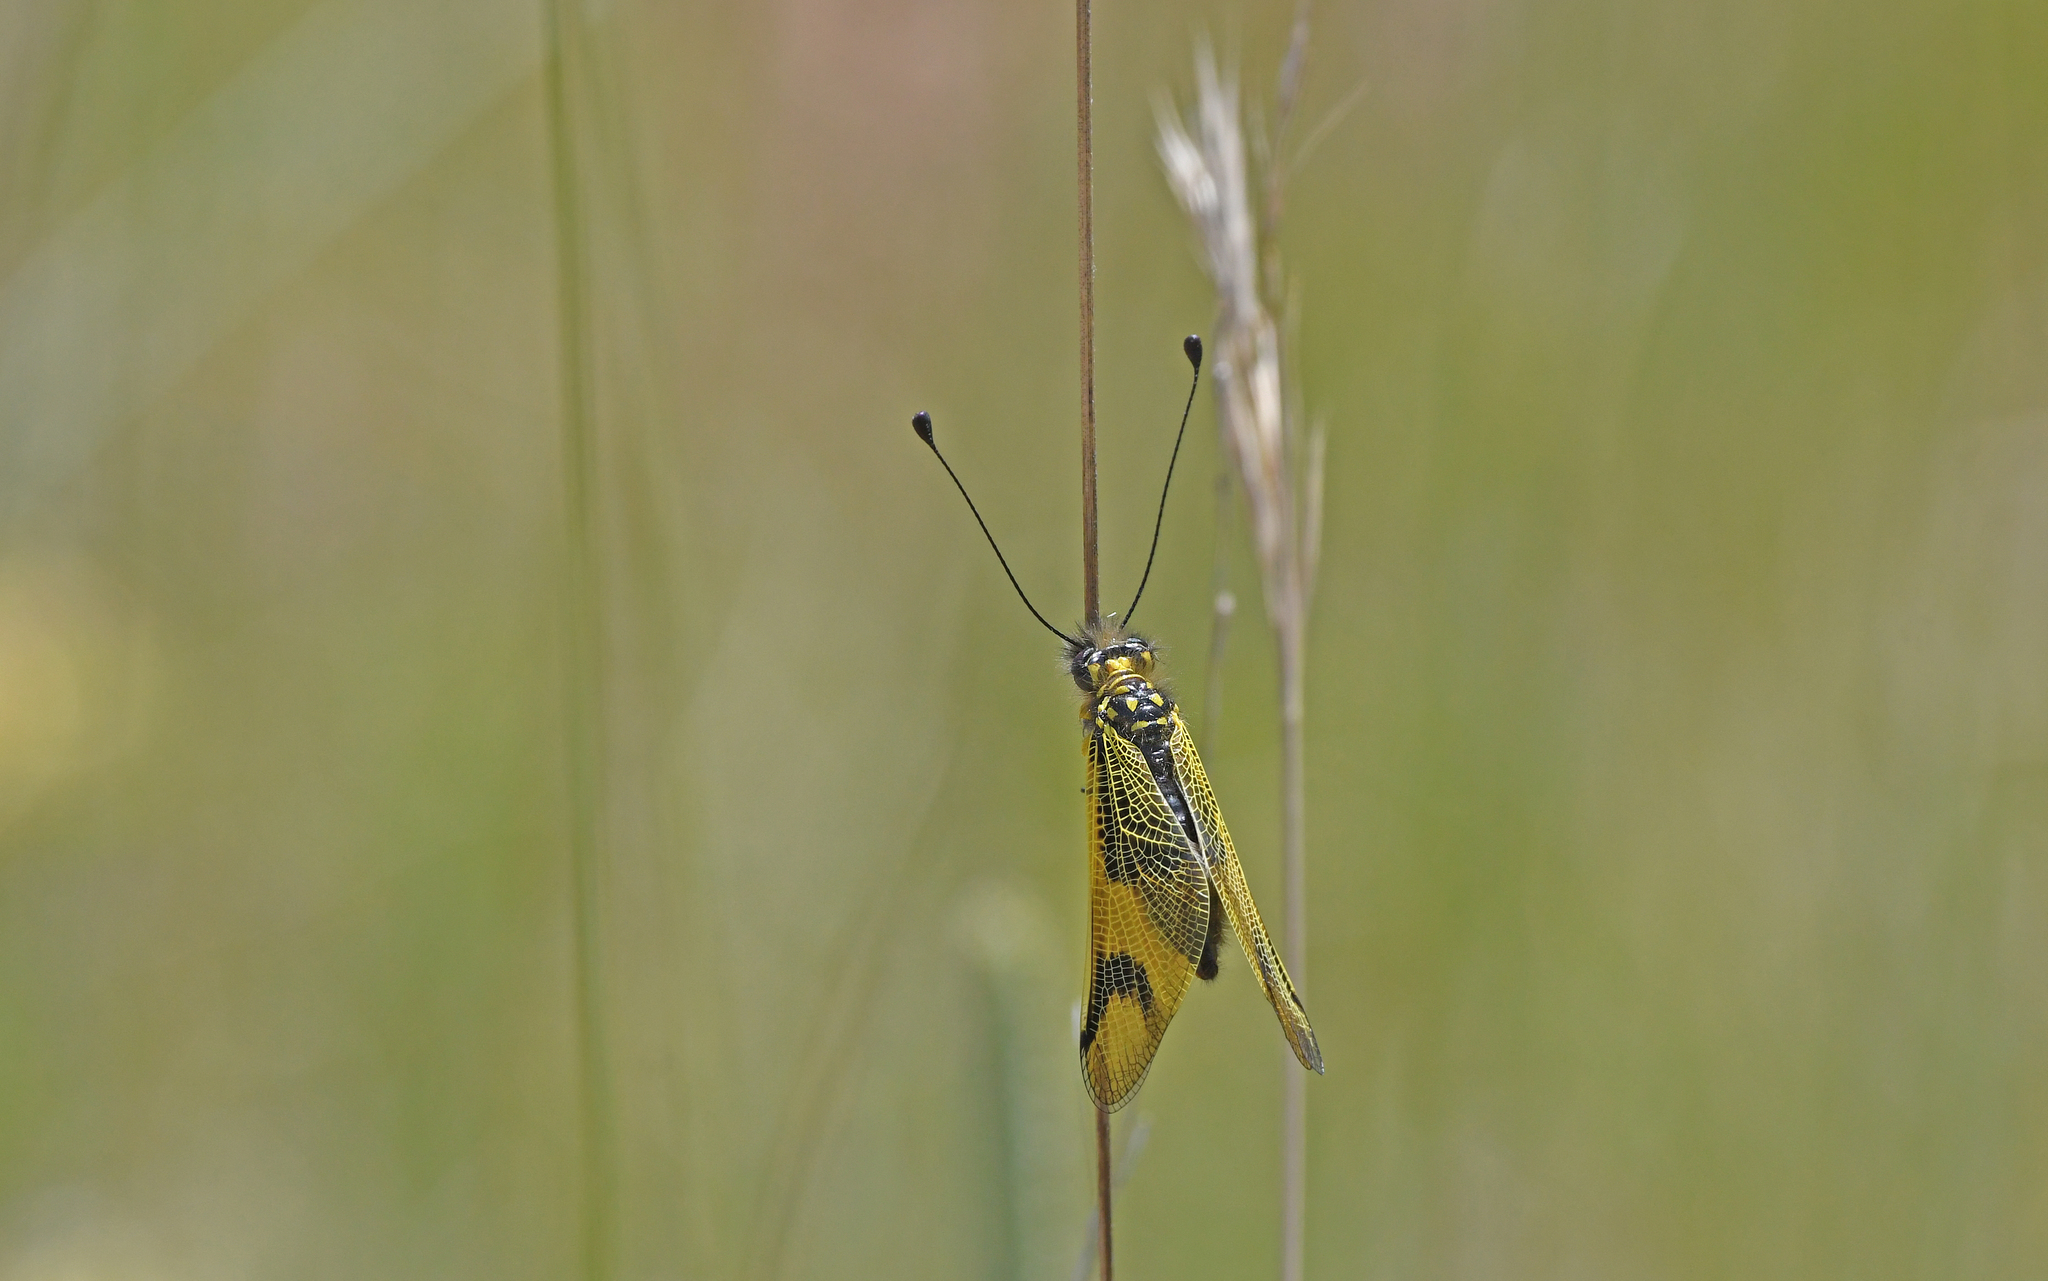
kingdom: Animalia
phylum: Arthropoda
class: Insecta
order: Neuroptera
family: Ascalaphidae
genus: Libelloides
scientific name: Libelloides longicornis
